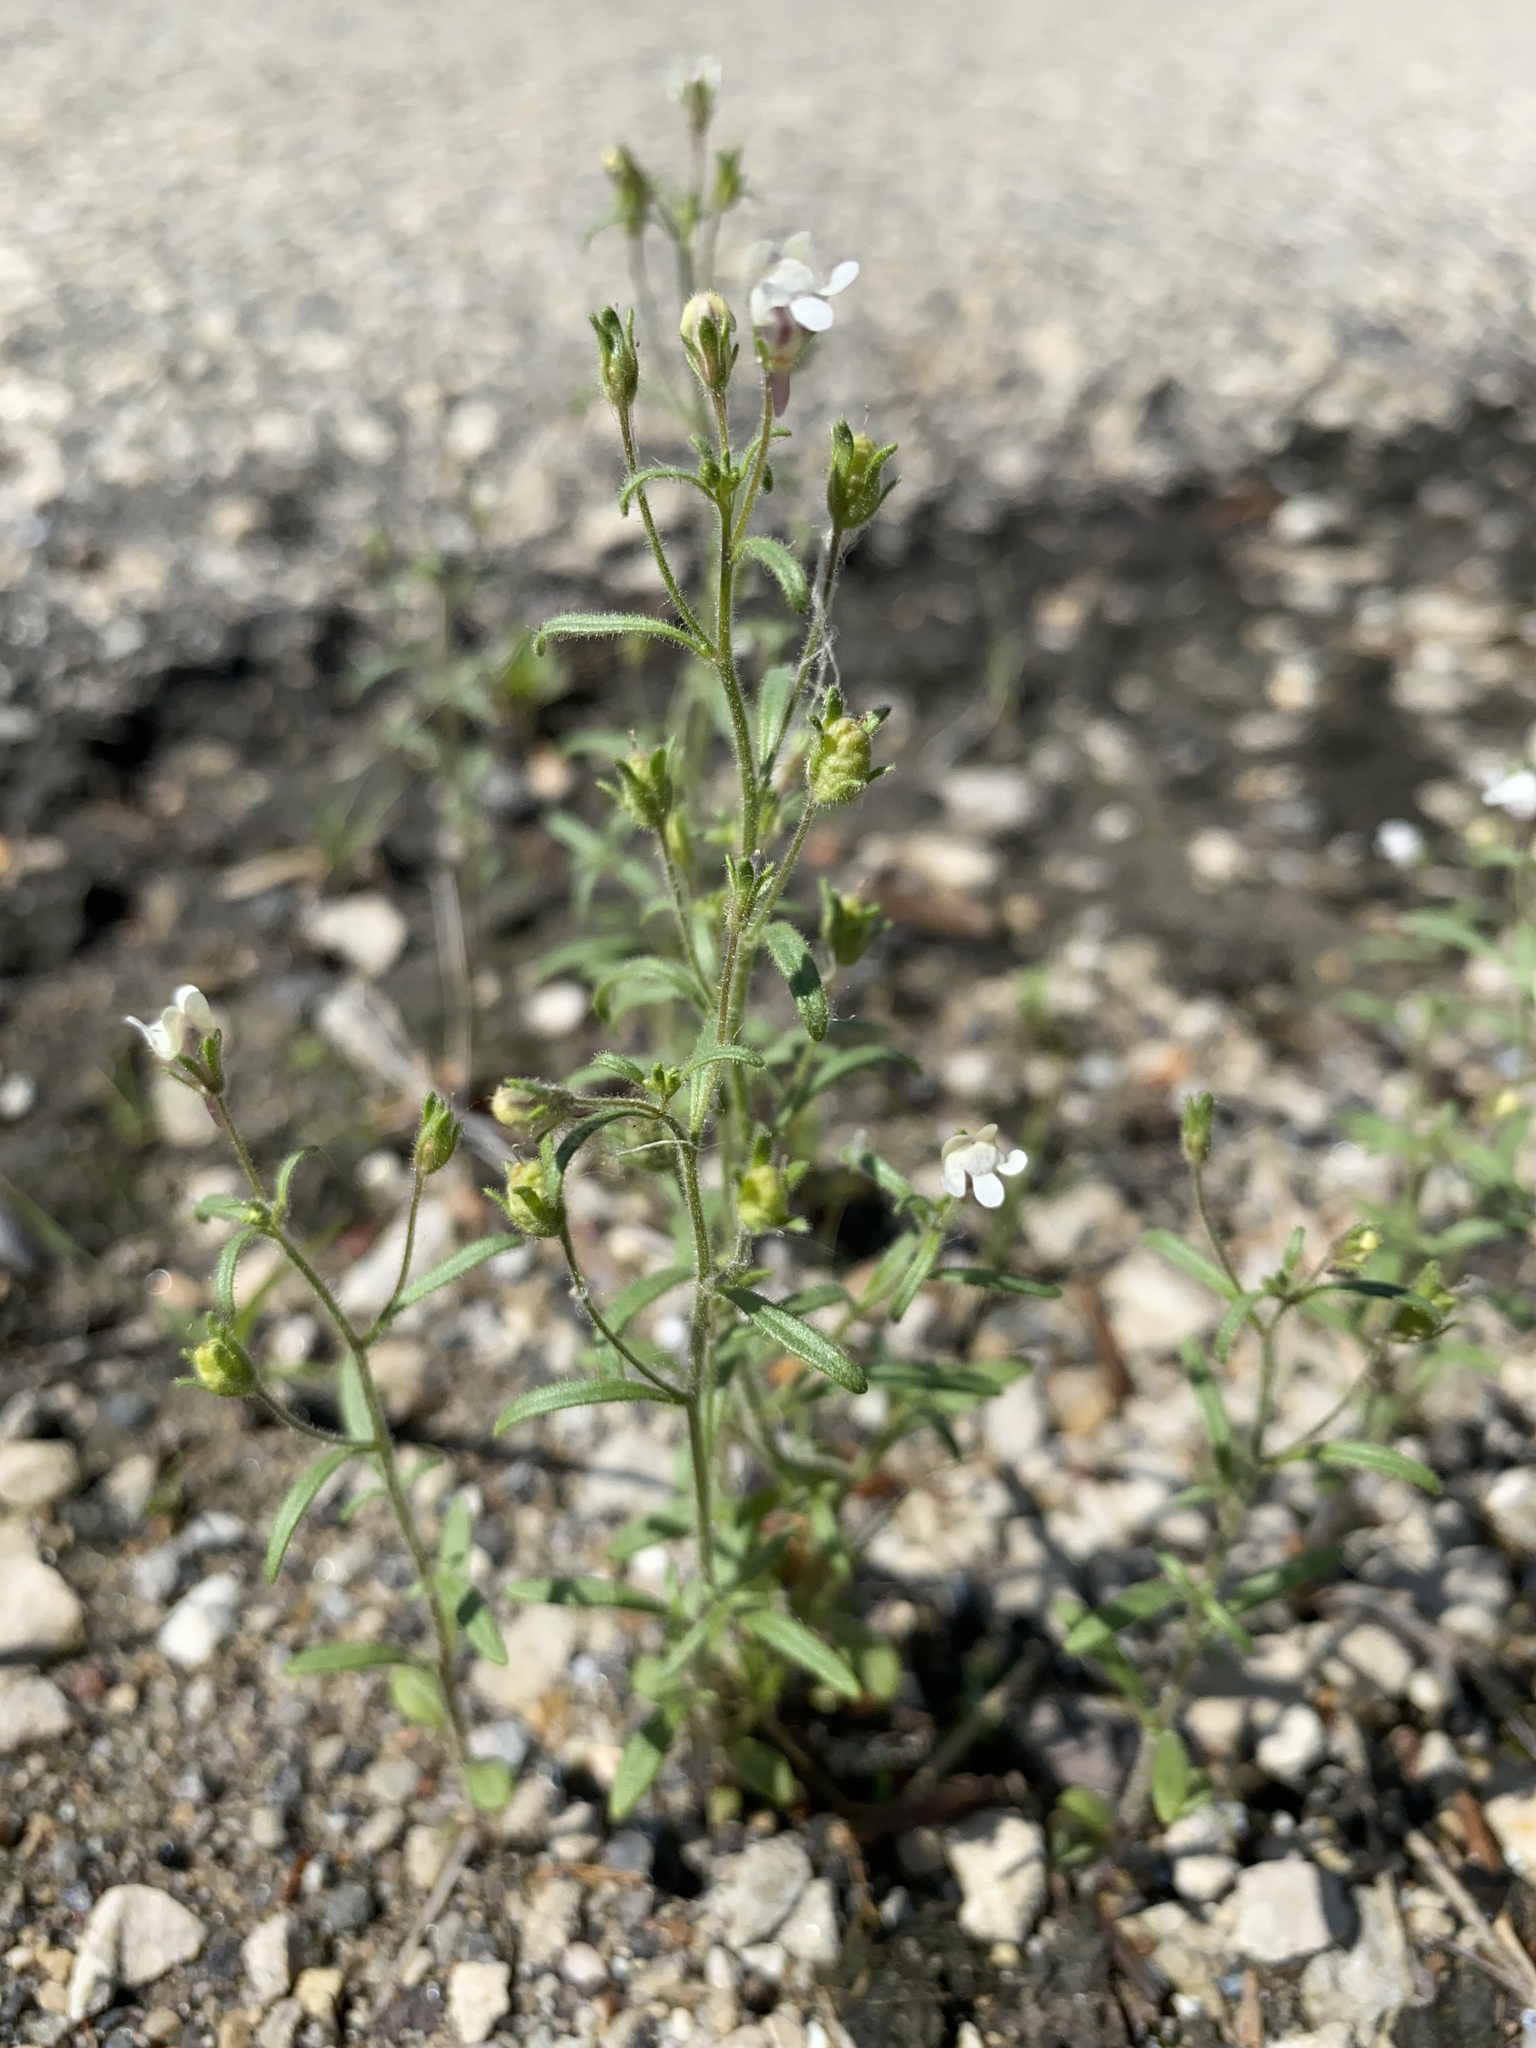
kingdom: Plantae
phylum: Tracheophyta
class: Magnoliopsida
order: Lamiales
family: Plantaginaceae
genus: Chaenorhinum
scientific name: Chaenorhinum minus
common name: Dwarf snapdragon
